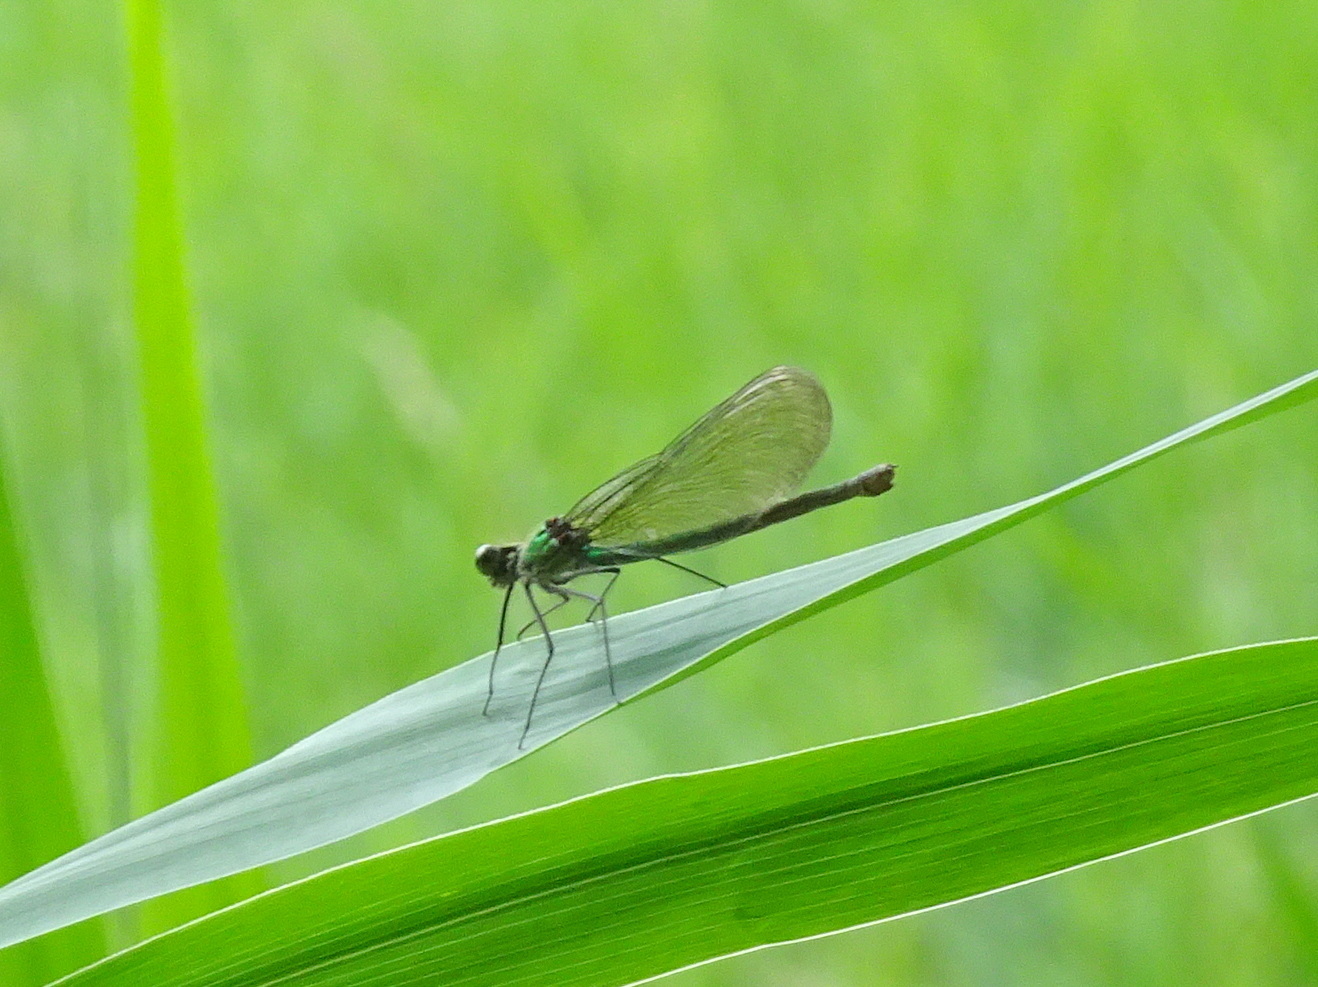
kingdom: Animalia
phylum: Arthropoda
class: Insecta
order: Odonata
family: Calopterygidae
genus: Calopteryx
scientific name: Calopteryx splendens
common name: Banded demoiselle
